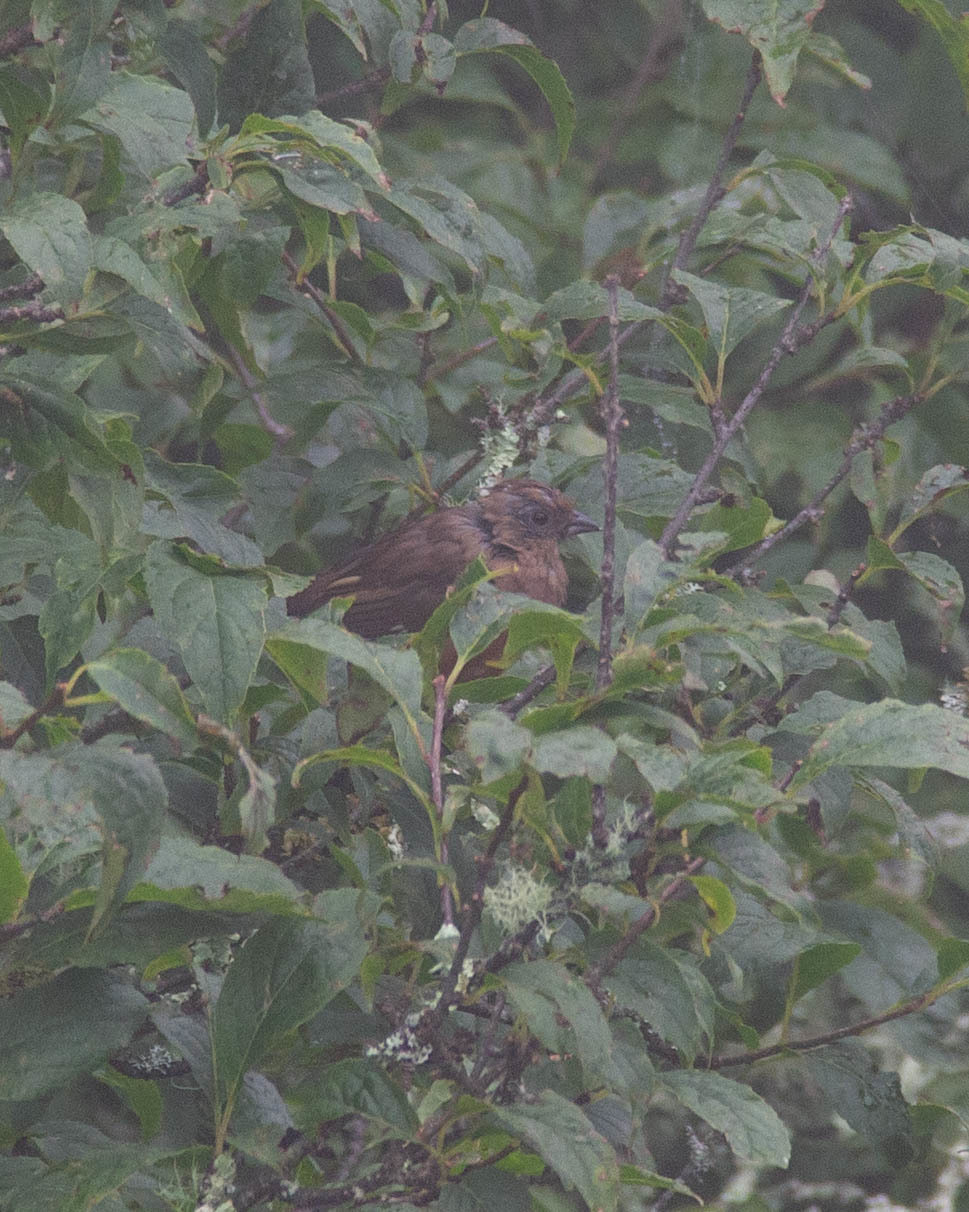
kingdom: Animalia
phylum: Chordata
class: Aves
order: Passeriformes
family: Passerellidae
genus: Pipilo
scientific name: Pipilo erythrophthalmus
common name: Eastern towhee
